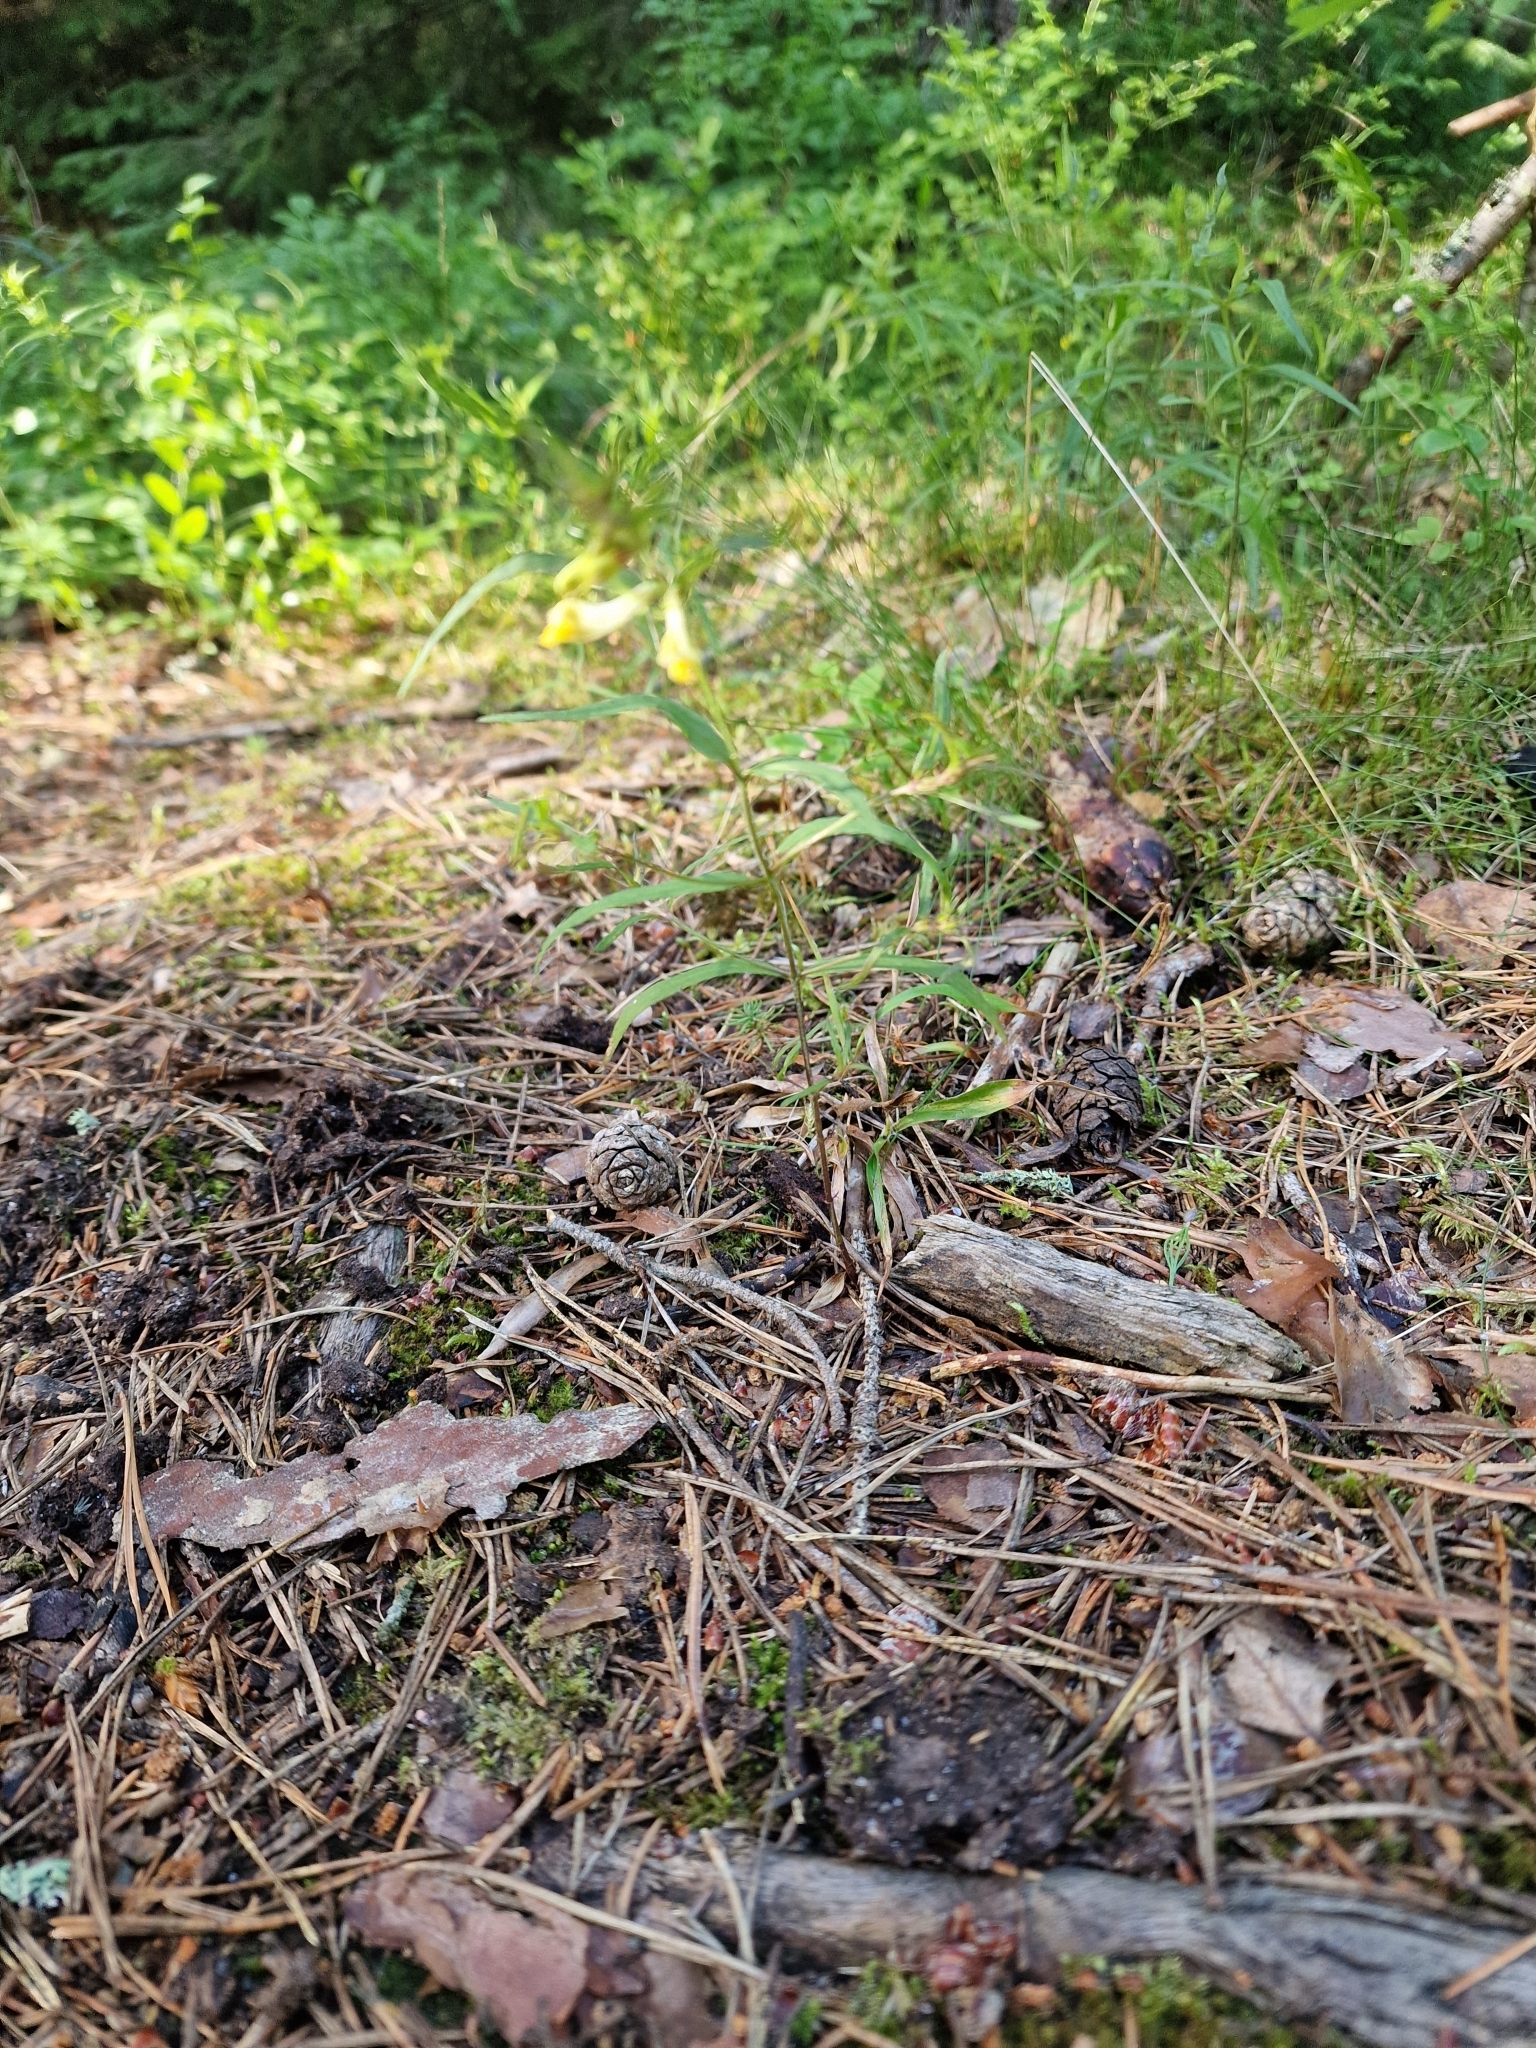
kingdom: Plantae
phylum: Tracheophyta
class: Magnoliopsida
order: Lamiales
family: Orobanchaceae
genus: Melampyrum
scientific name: Melampyrum pratense
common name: Common cow-wheat
